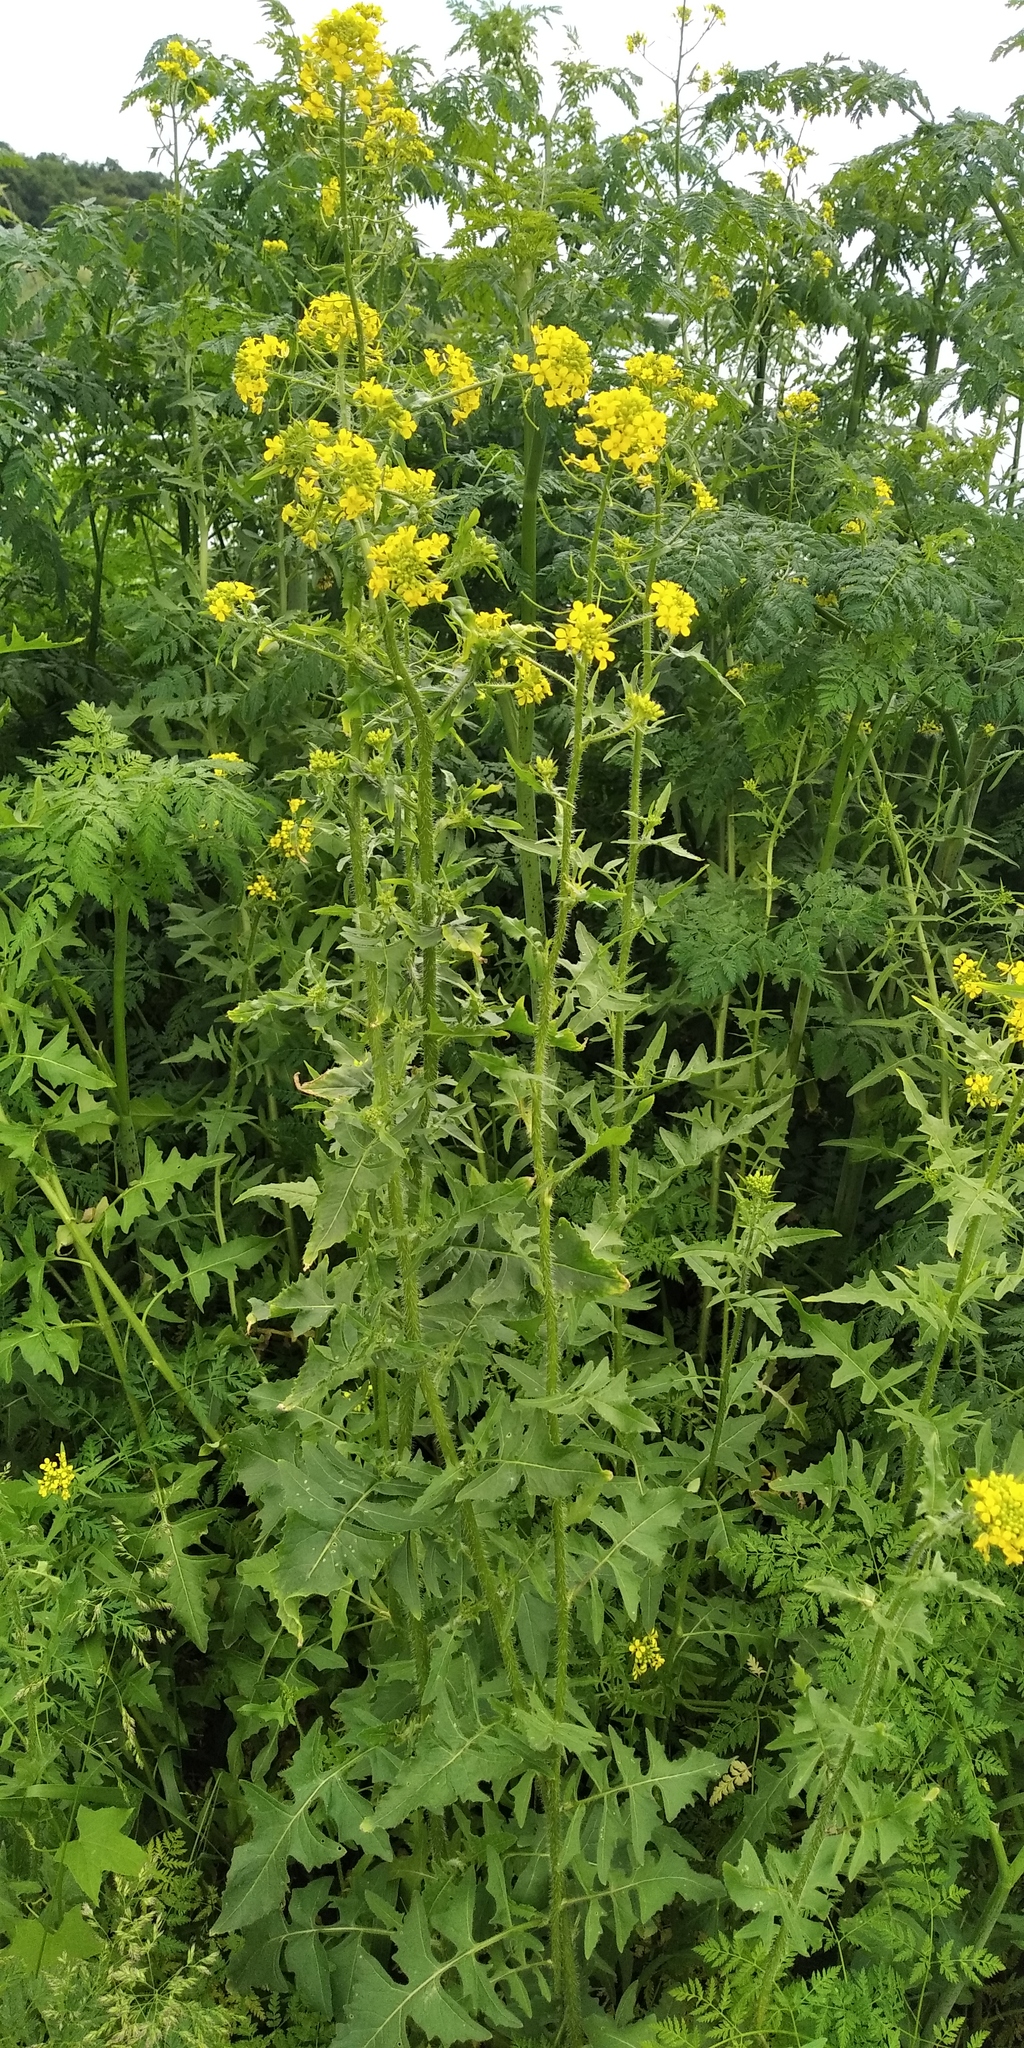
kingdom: Plantae
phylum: Tracheophyta
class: Magnoliopsida
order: Brassicales
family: Brassicaceae
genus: Sisymbrium
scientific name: Sisymbrium loeselii
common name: False london-rocket
